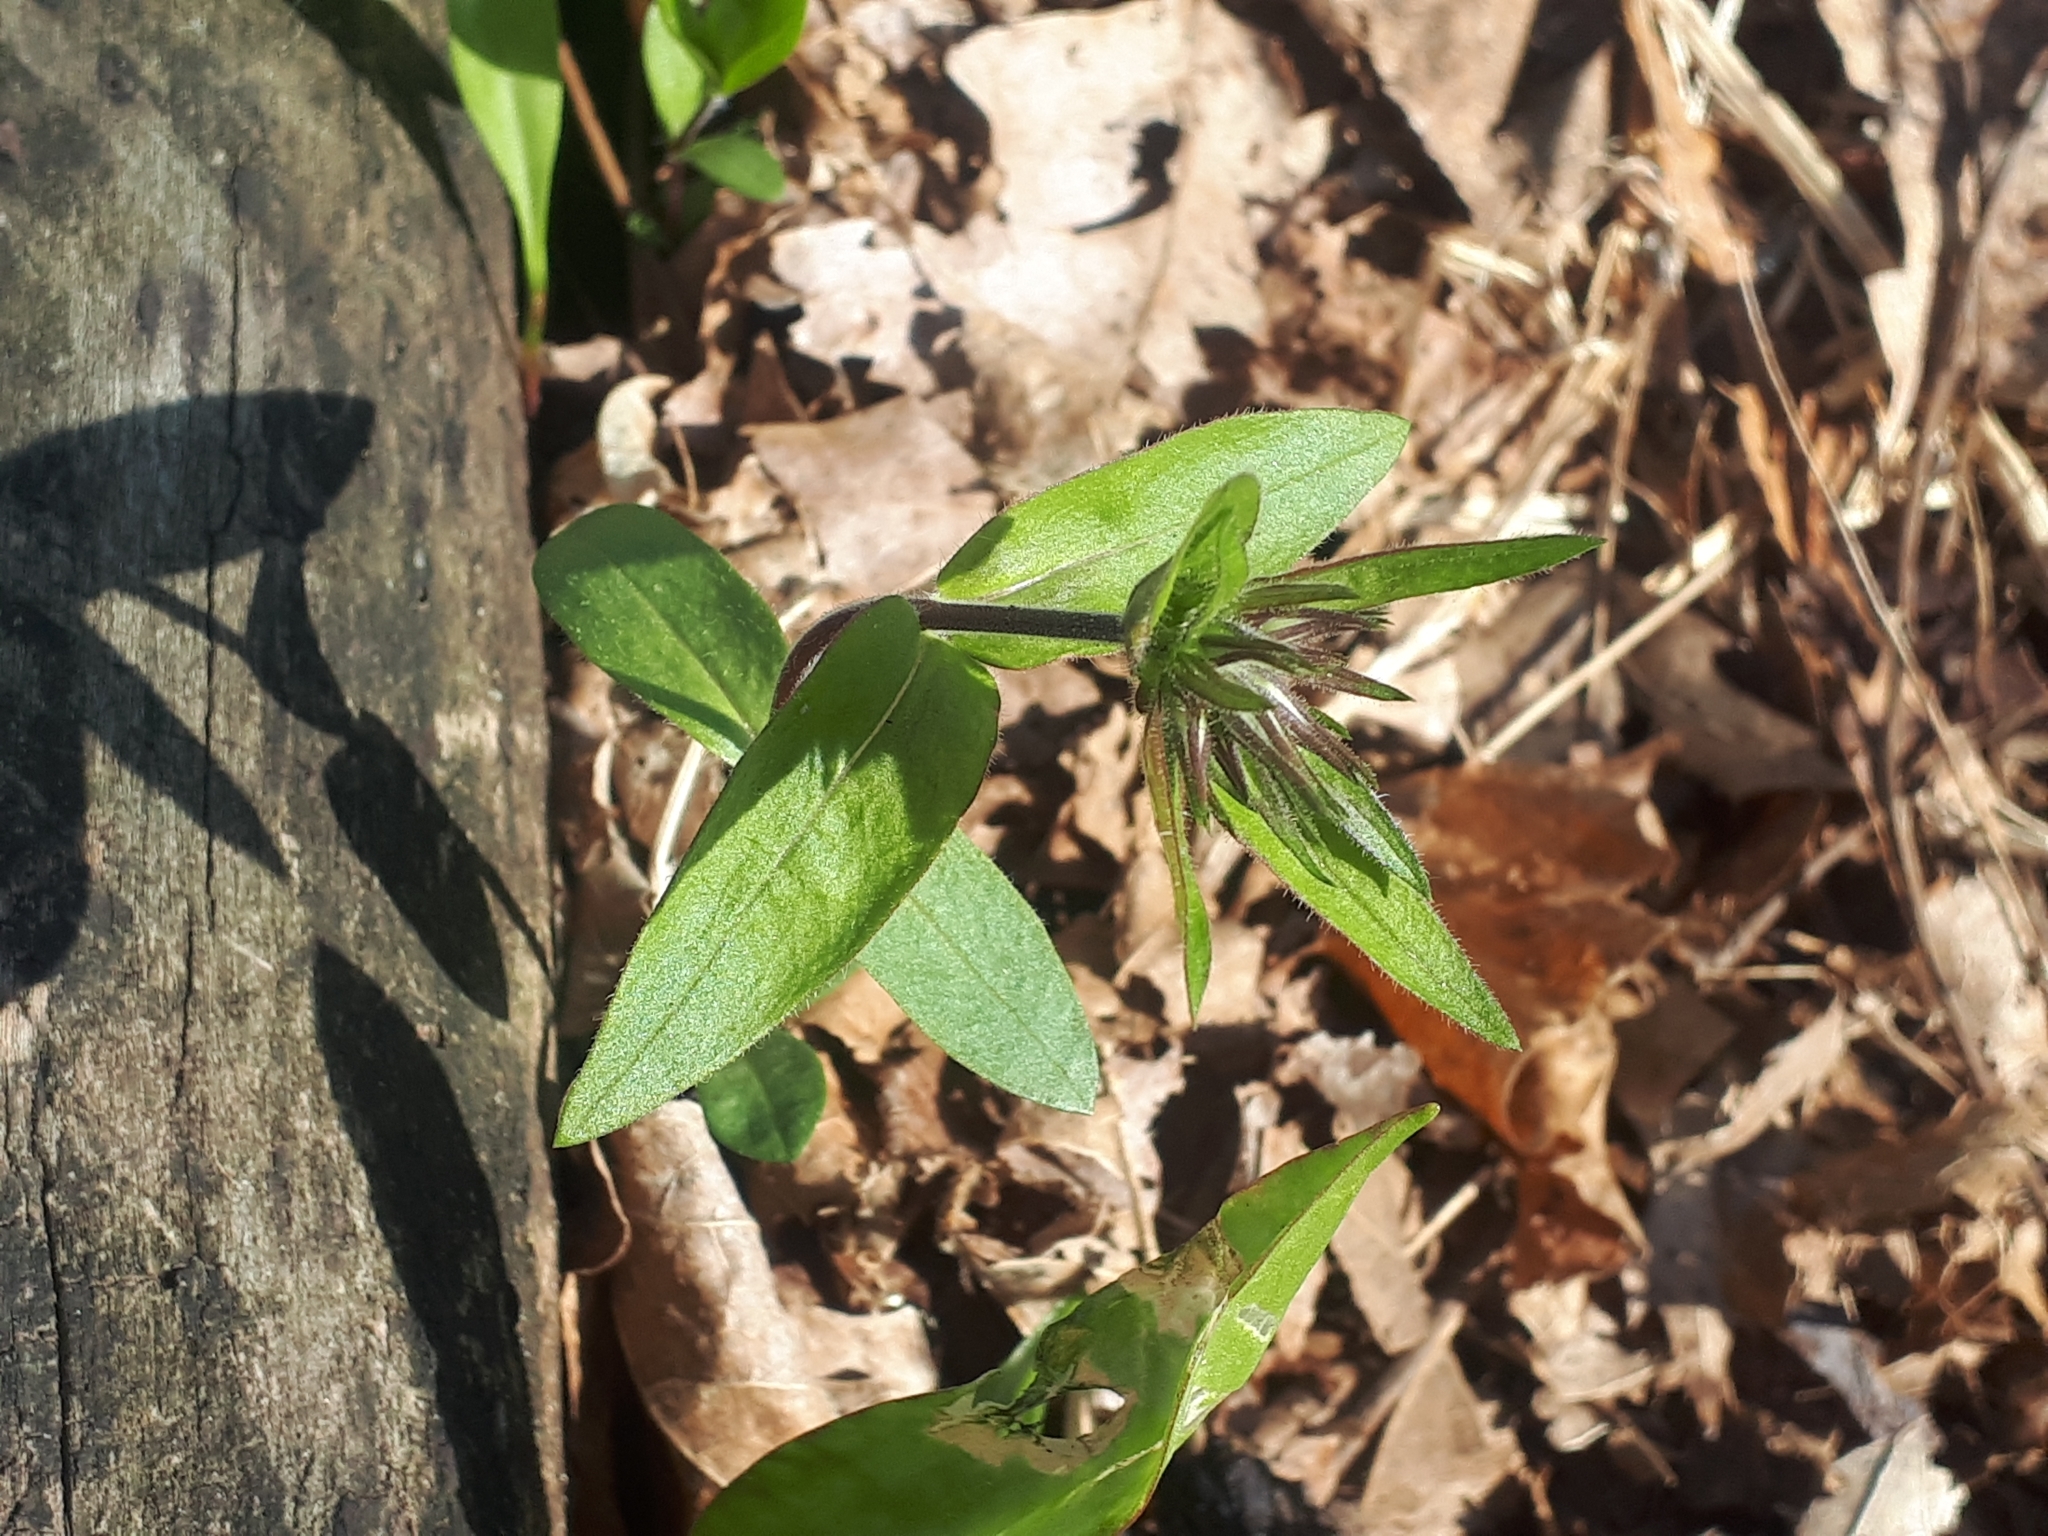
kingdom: Plantae
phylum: Tracheophyta
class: Magnoliopsida
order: Ericales
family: Polemoniaceae
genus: Phlox
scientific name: Phlox divaricata
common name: Blue phlox
